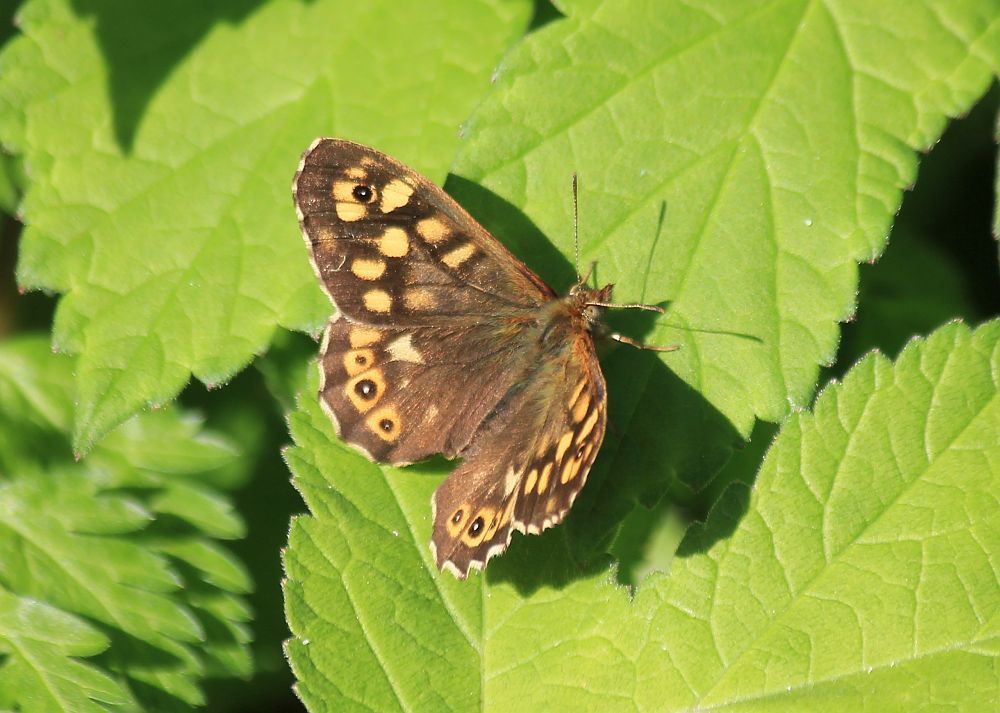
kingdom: Animalia
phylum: Arthropoda
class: Insecta
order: Lepidoptera
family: Nymphalidae
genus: Pararge
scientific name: Pararge aegeria
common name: Speckled wood
